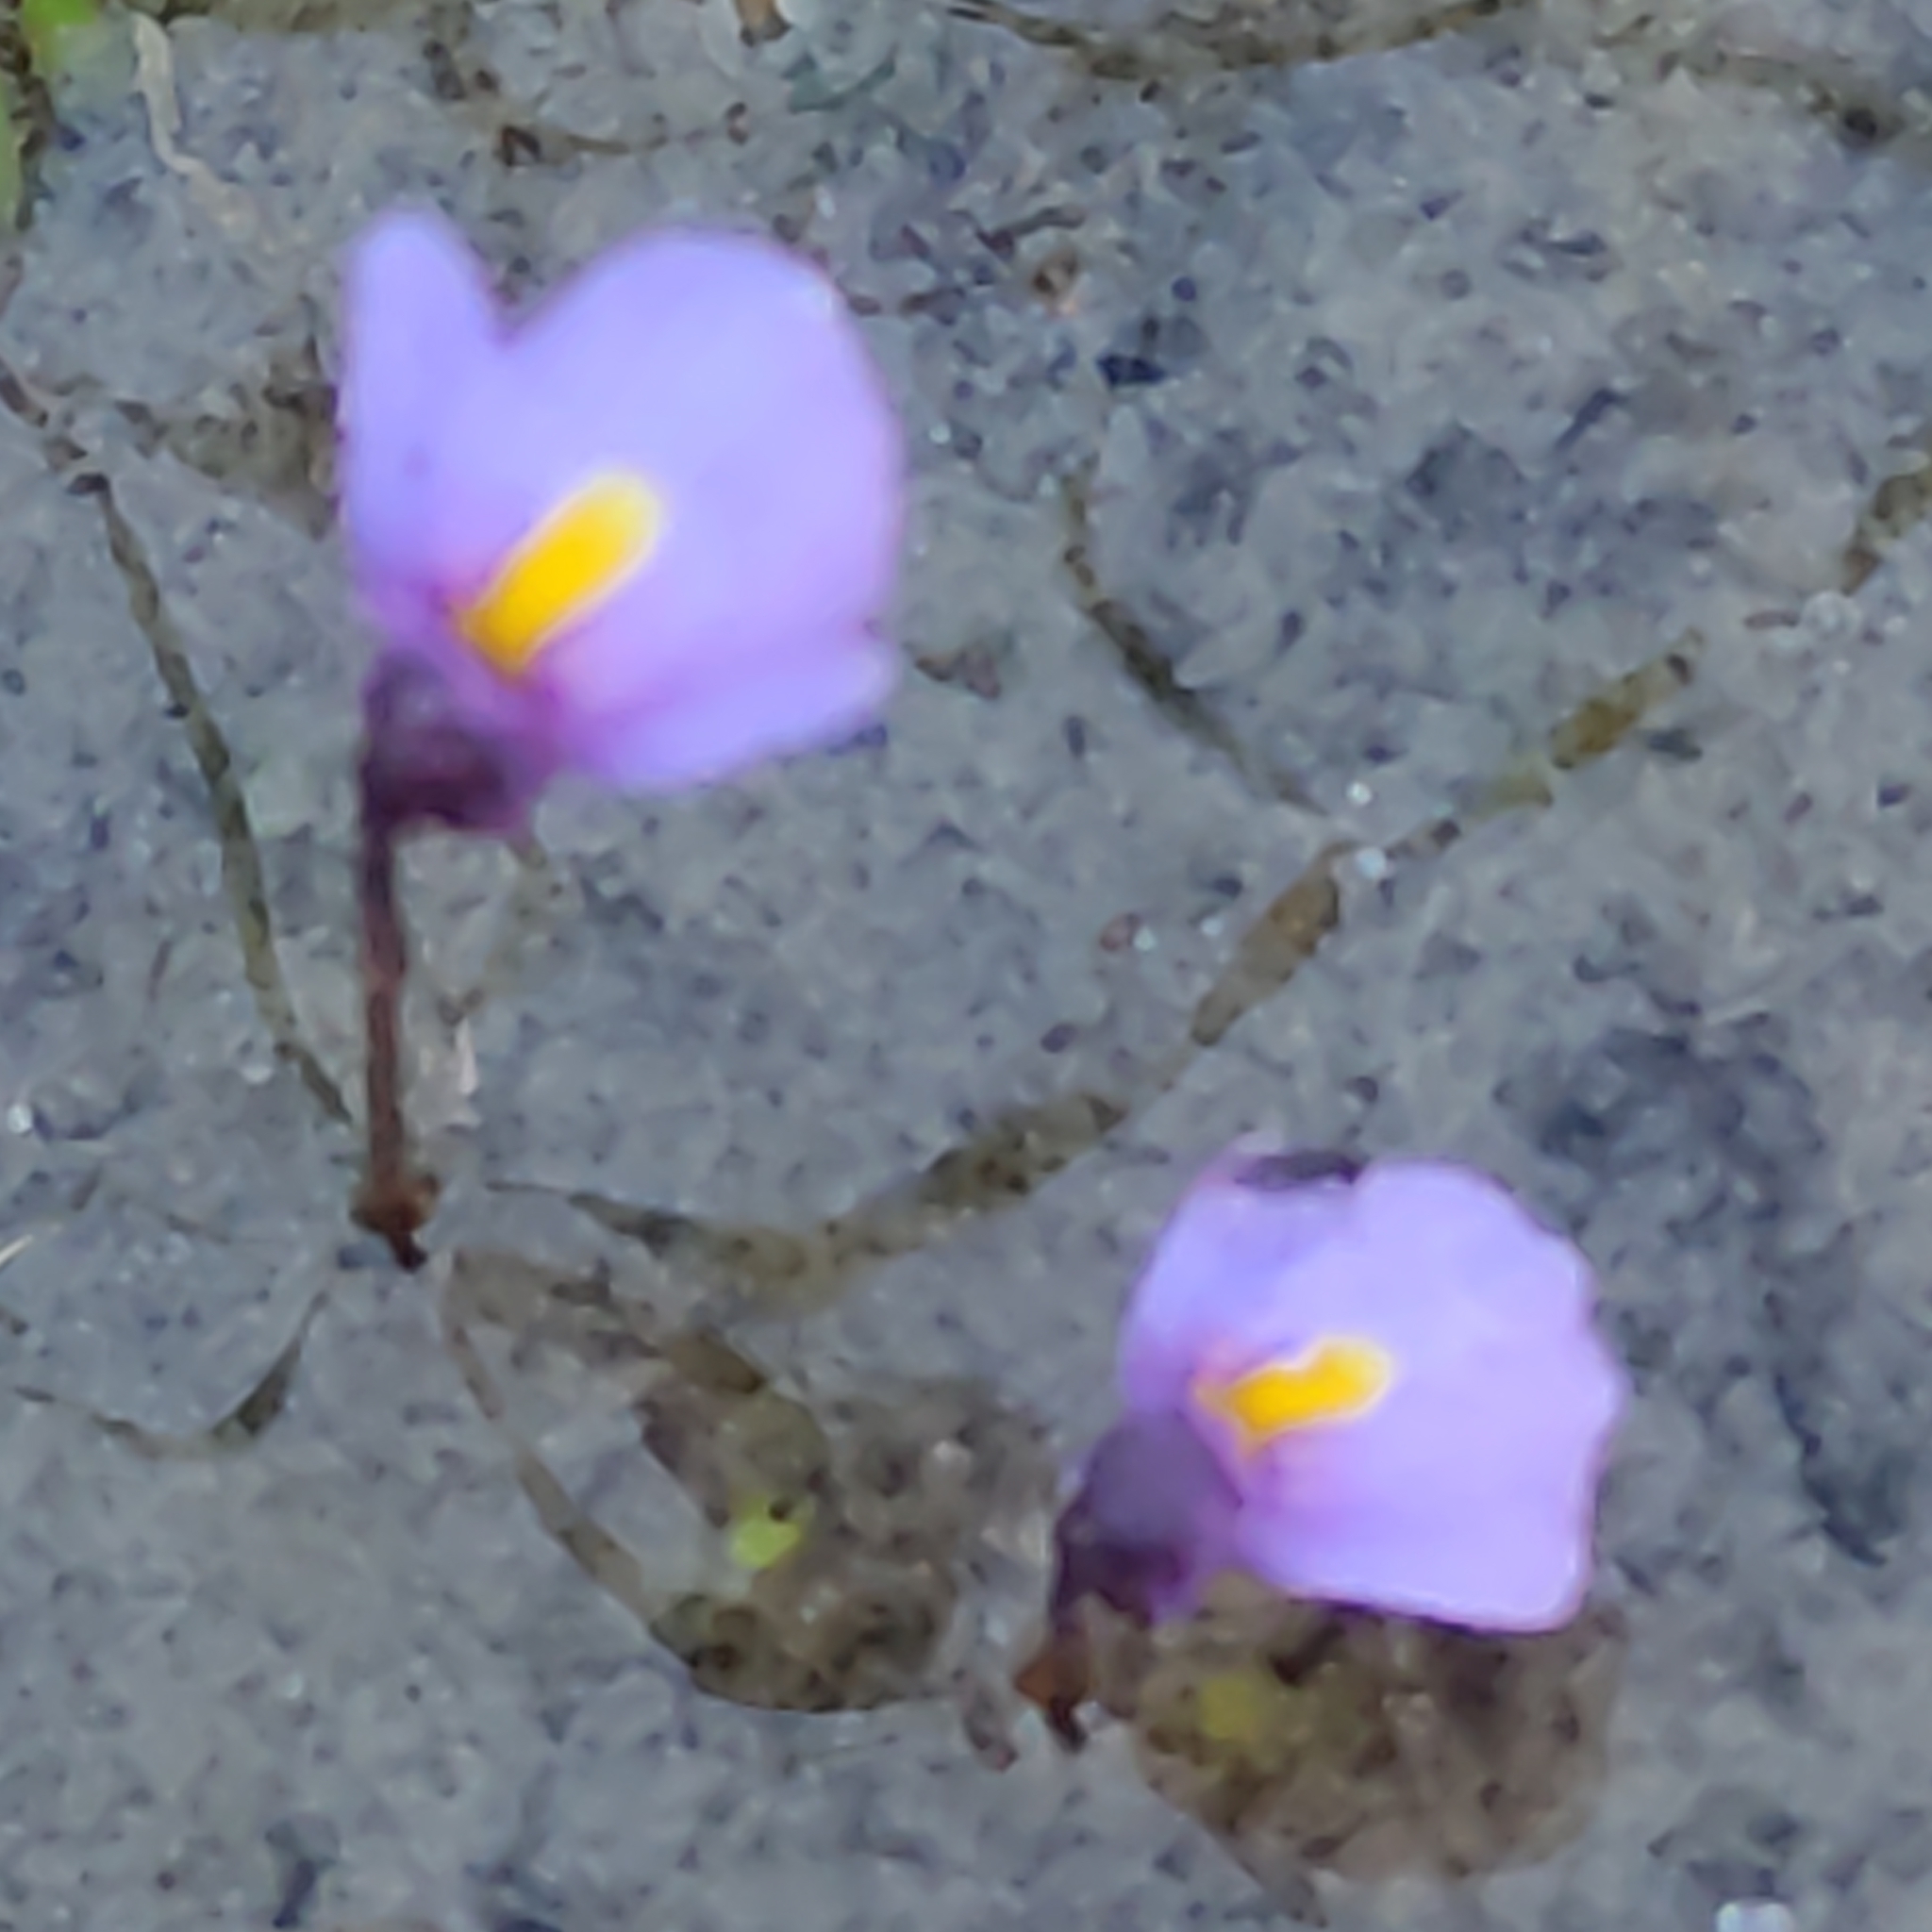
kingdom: Plantae
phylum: Tracheophyta
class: Magnoliopsida
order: Lamiales
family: Lentibulariaceae
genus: Utricularia
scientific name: Utricularia dichotoma
